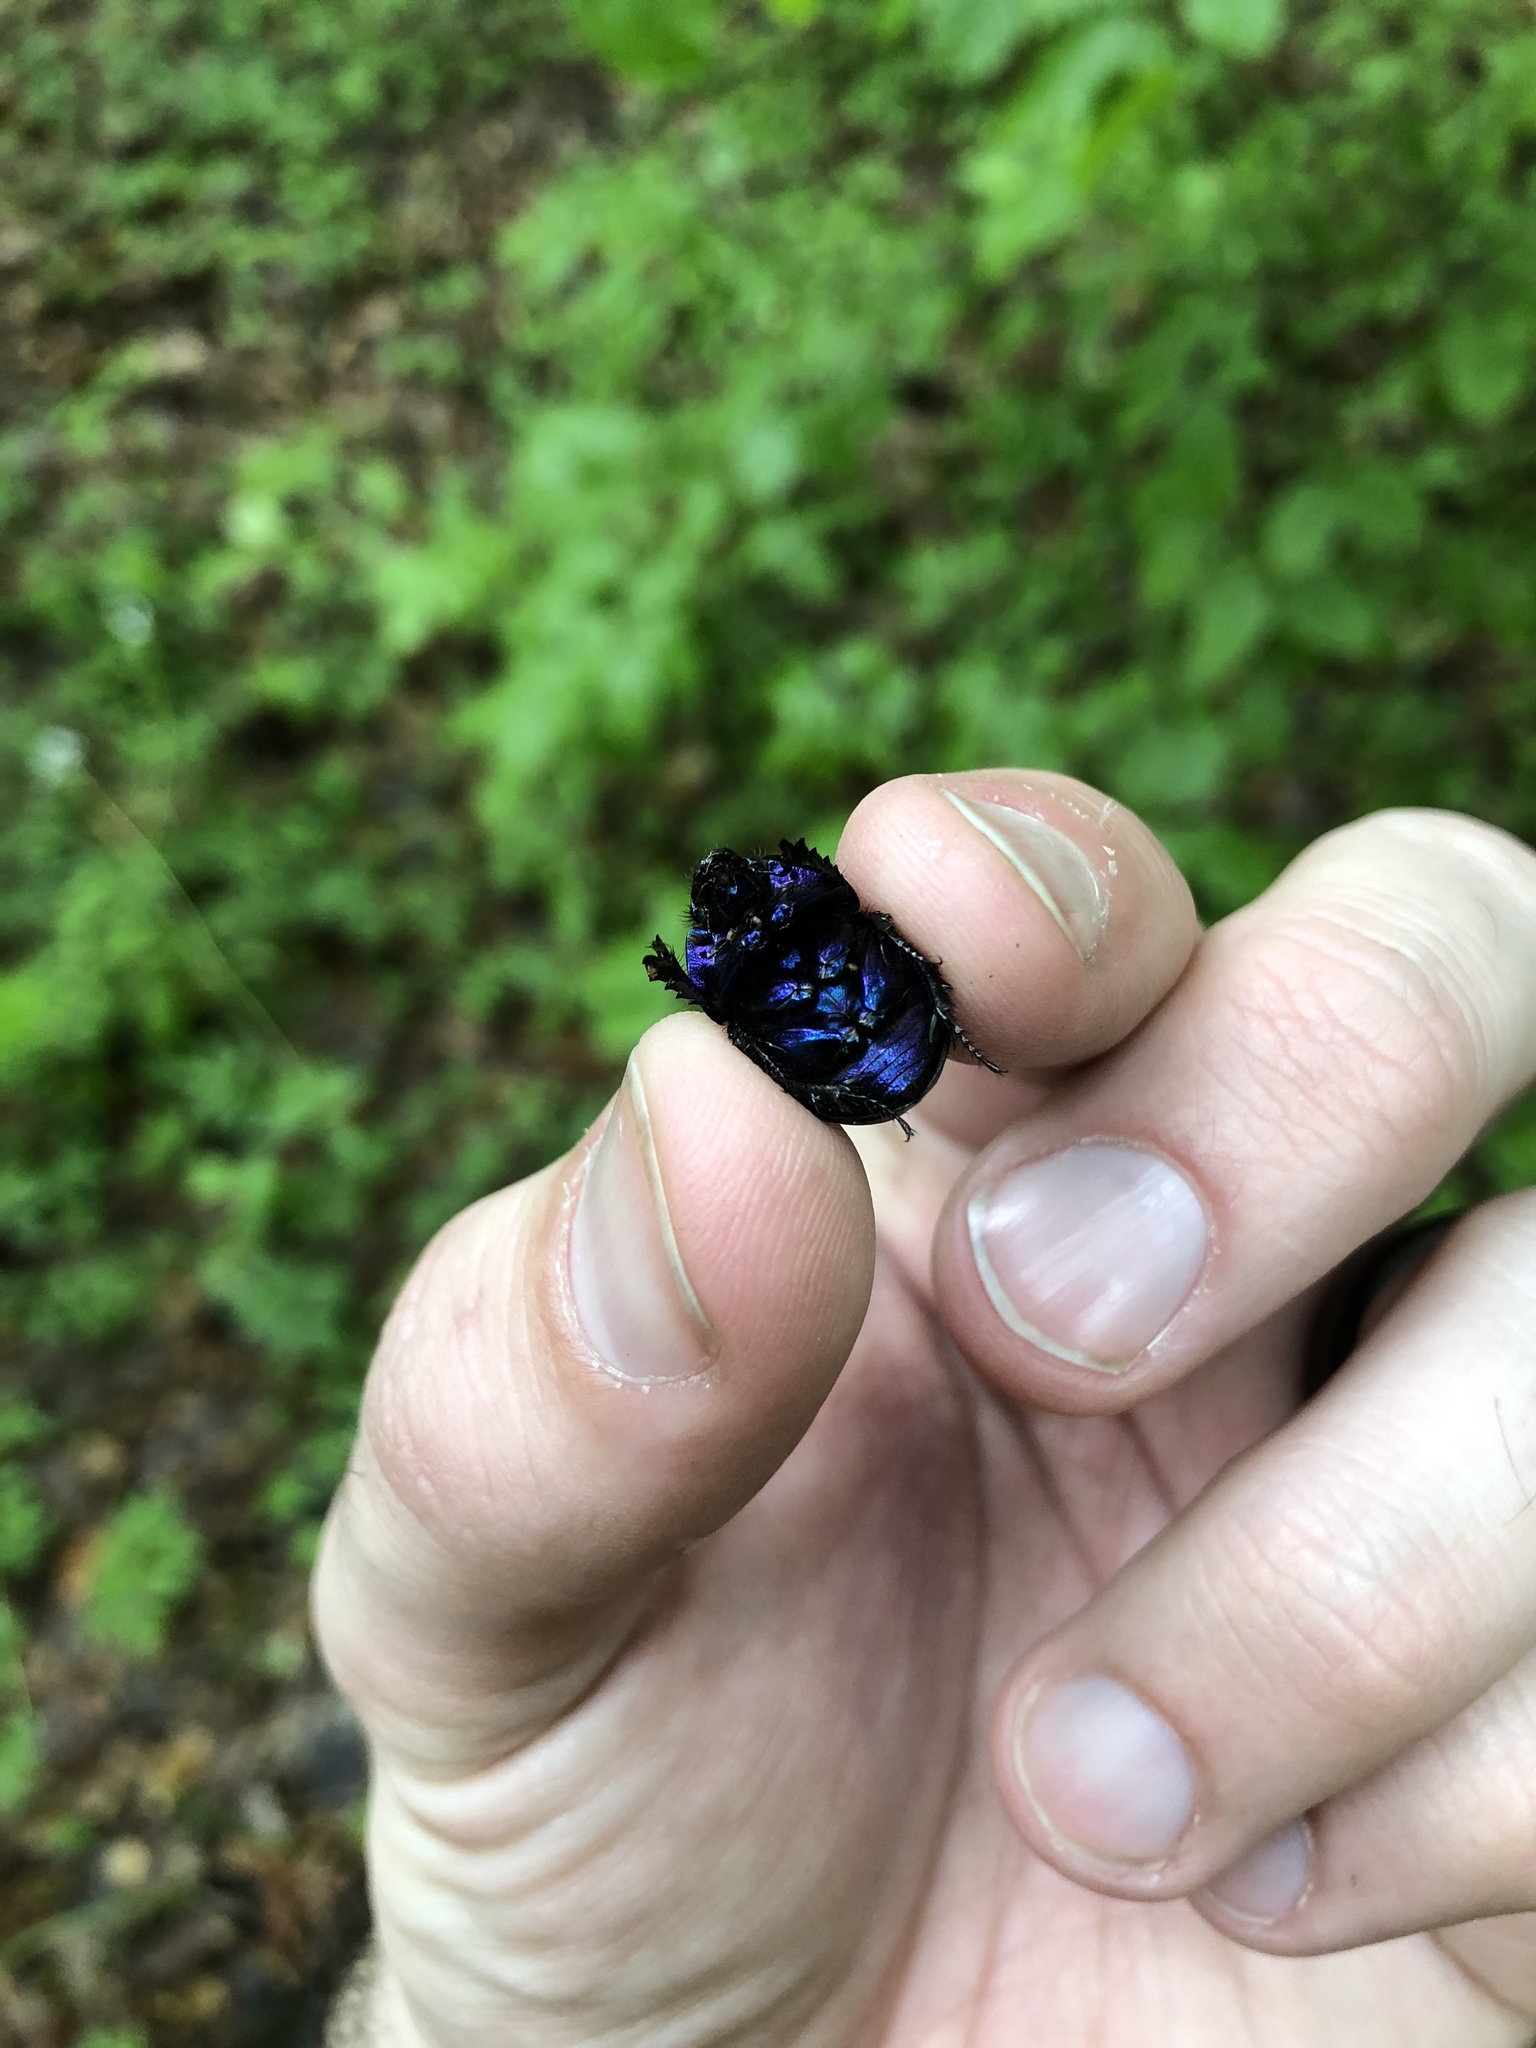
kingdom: Animalia
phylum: Arthropoda
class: Insecta
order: Coleoptera
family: Geotrupidae
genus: Anoplotrupes
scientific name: Anoplotrupes stercorosus
